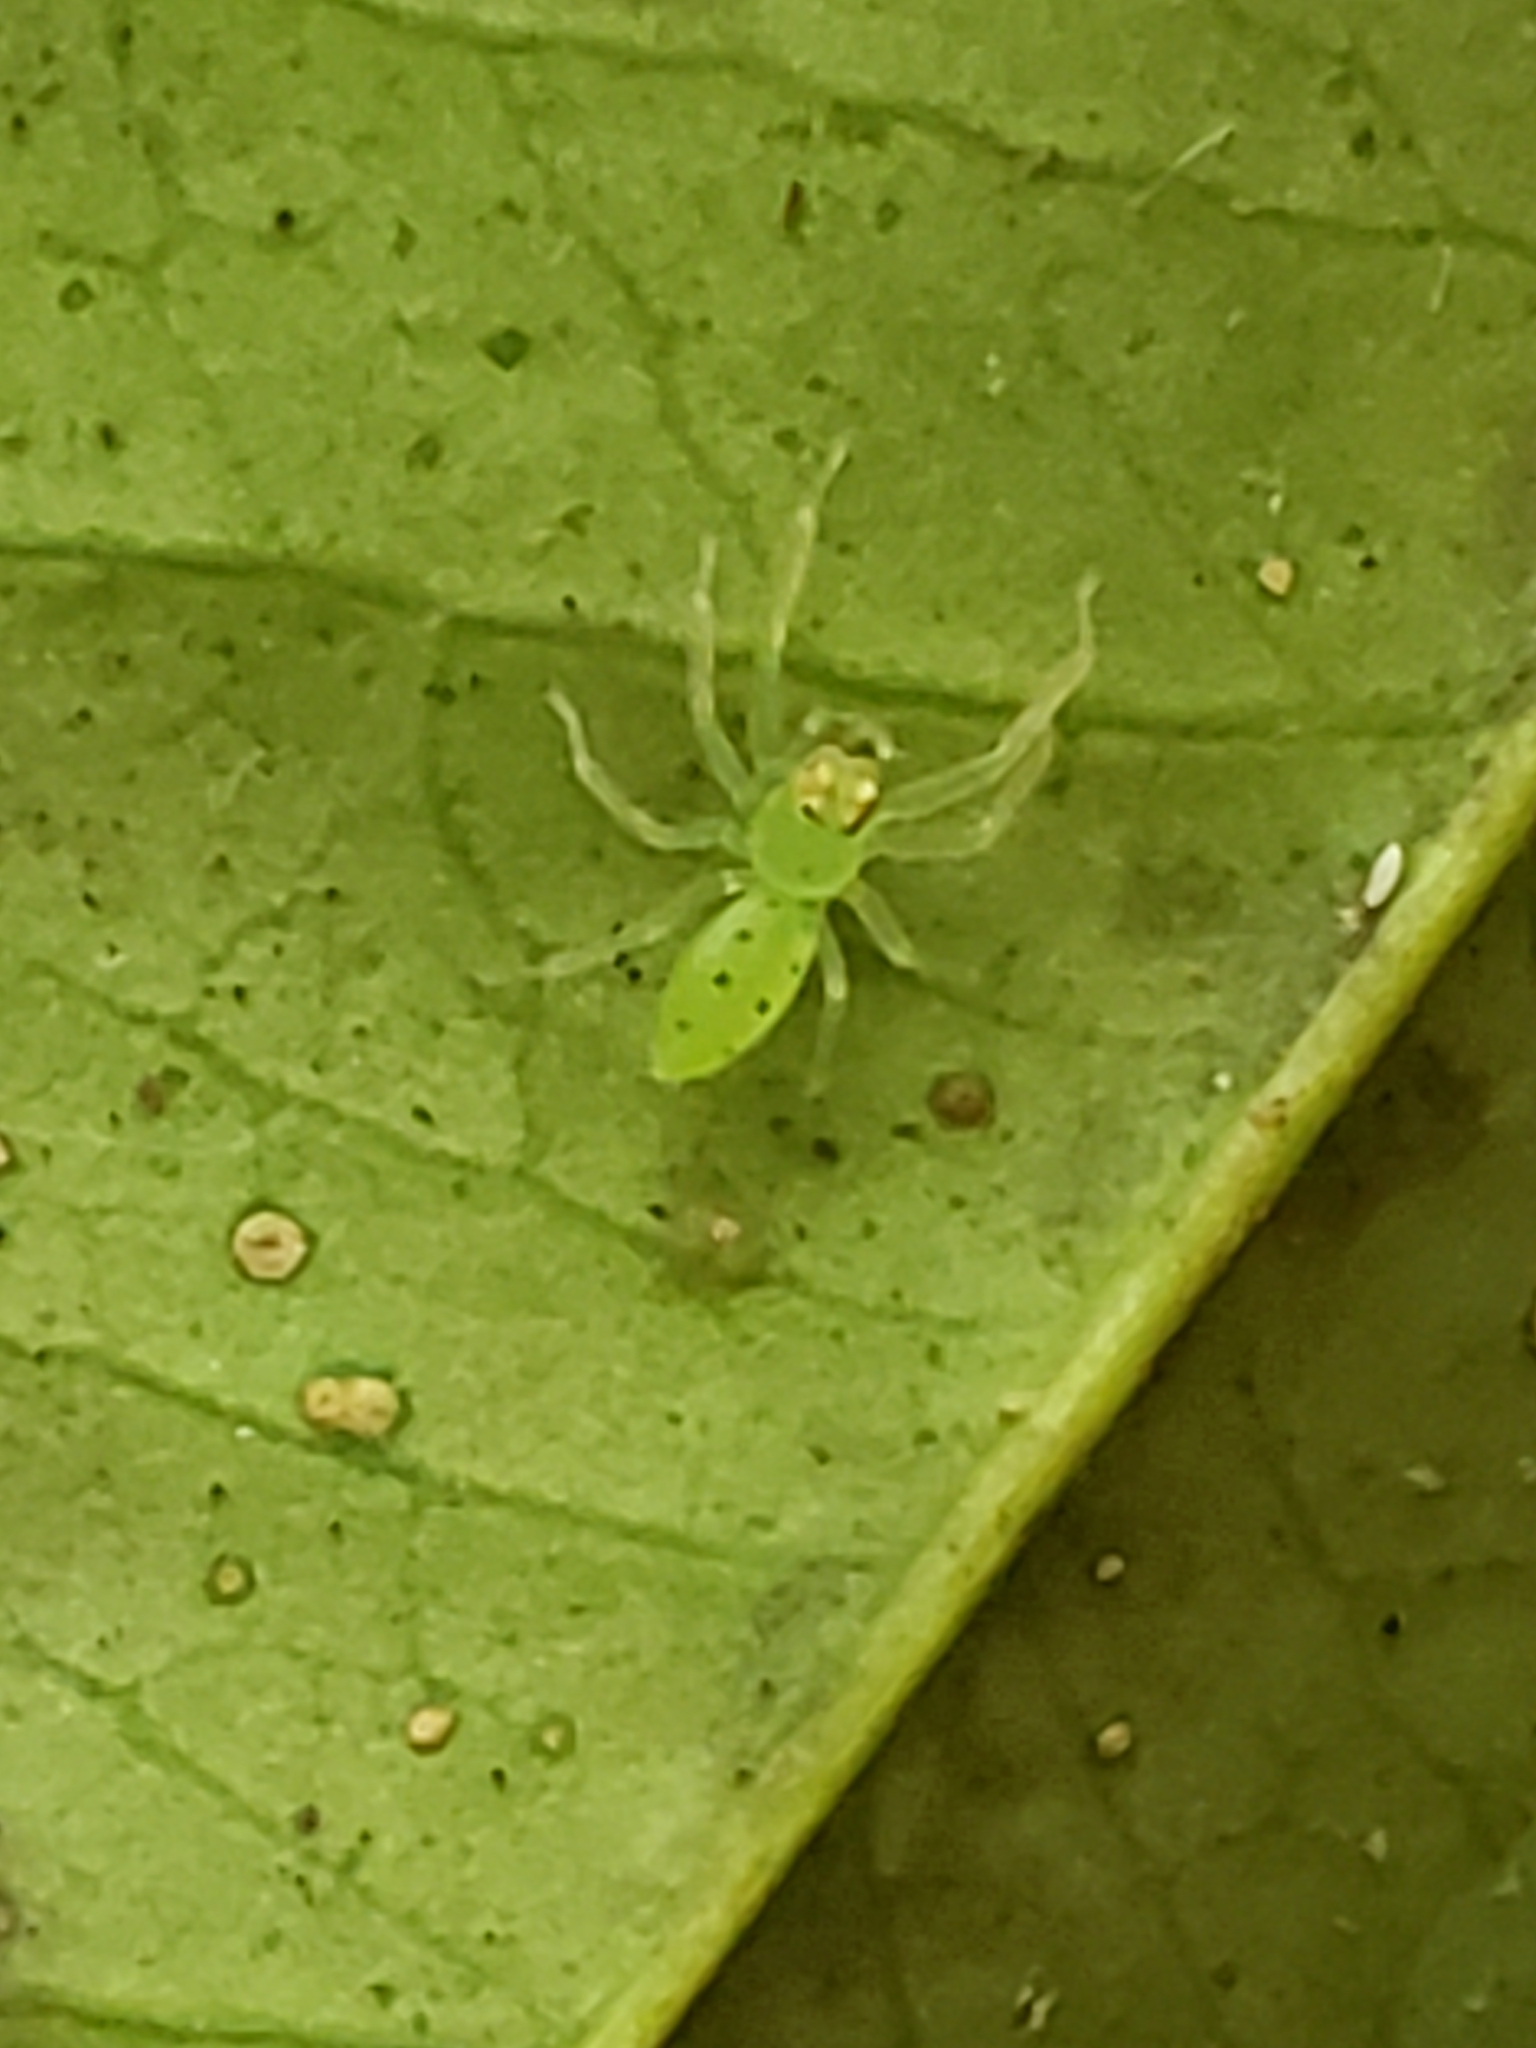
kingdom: Animalia
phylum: Arthropoda
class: Arachnida
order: Araneae
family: Salticidae
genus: Lyssomanes
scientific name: Lyssomanes viridis
